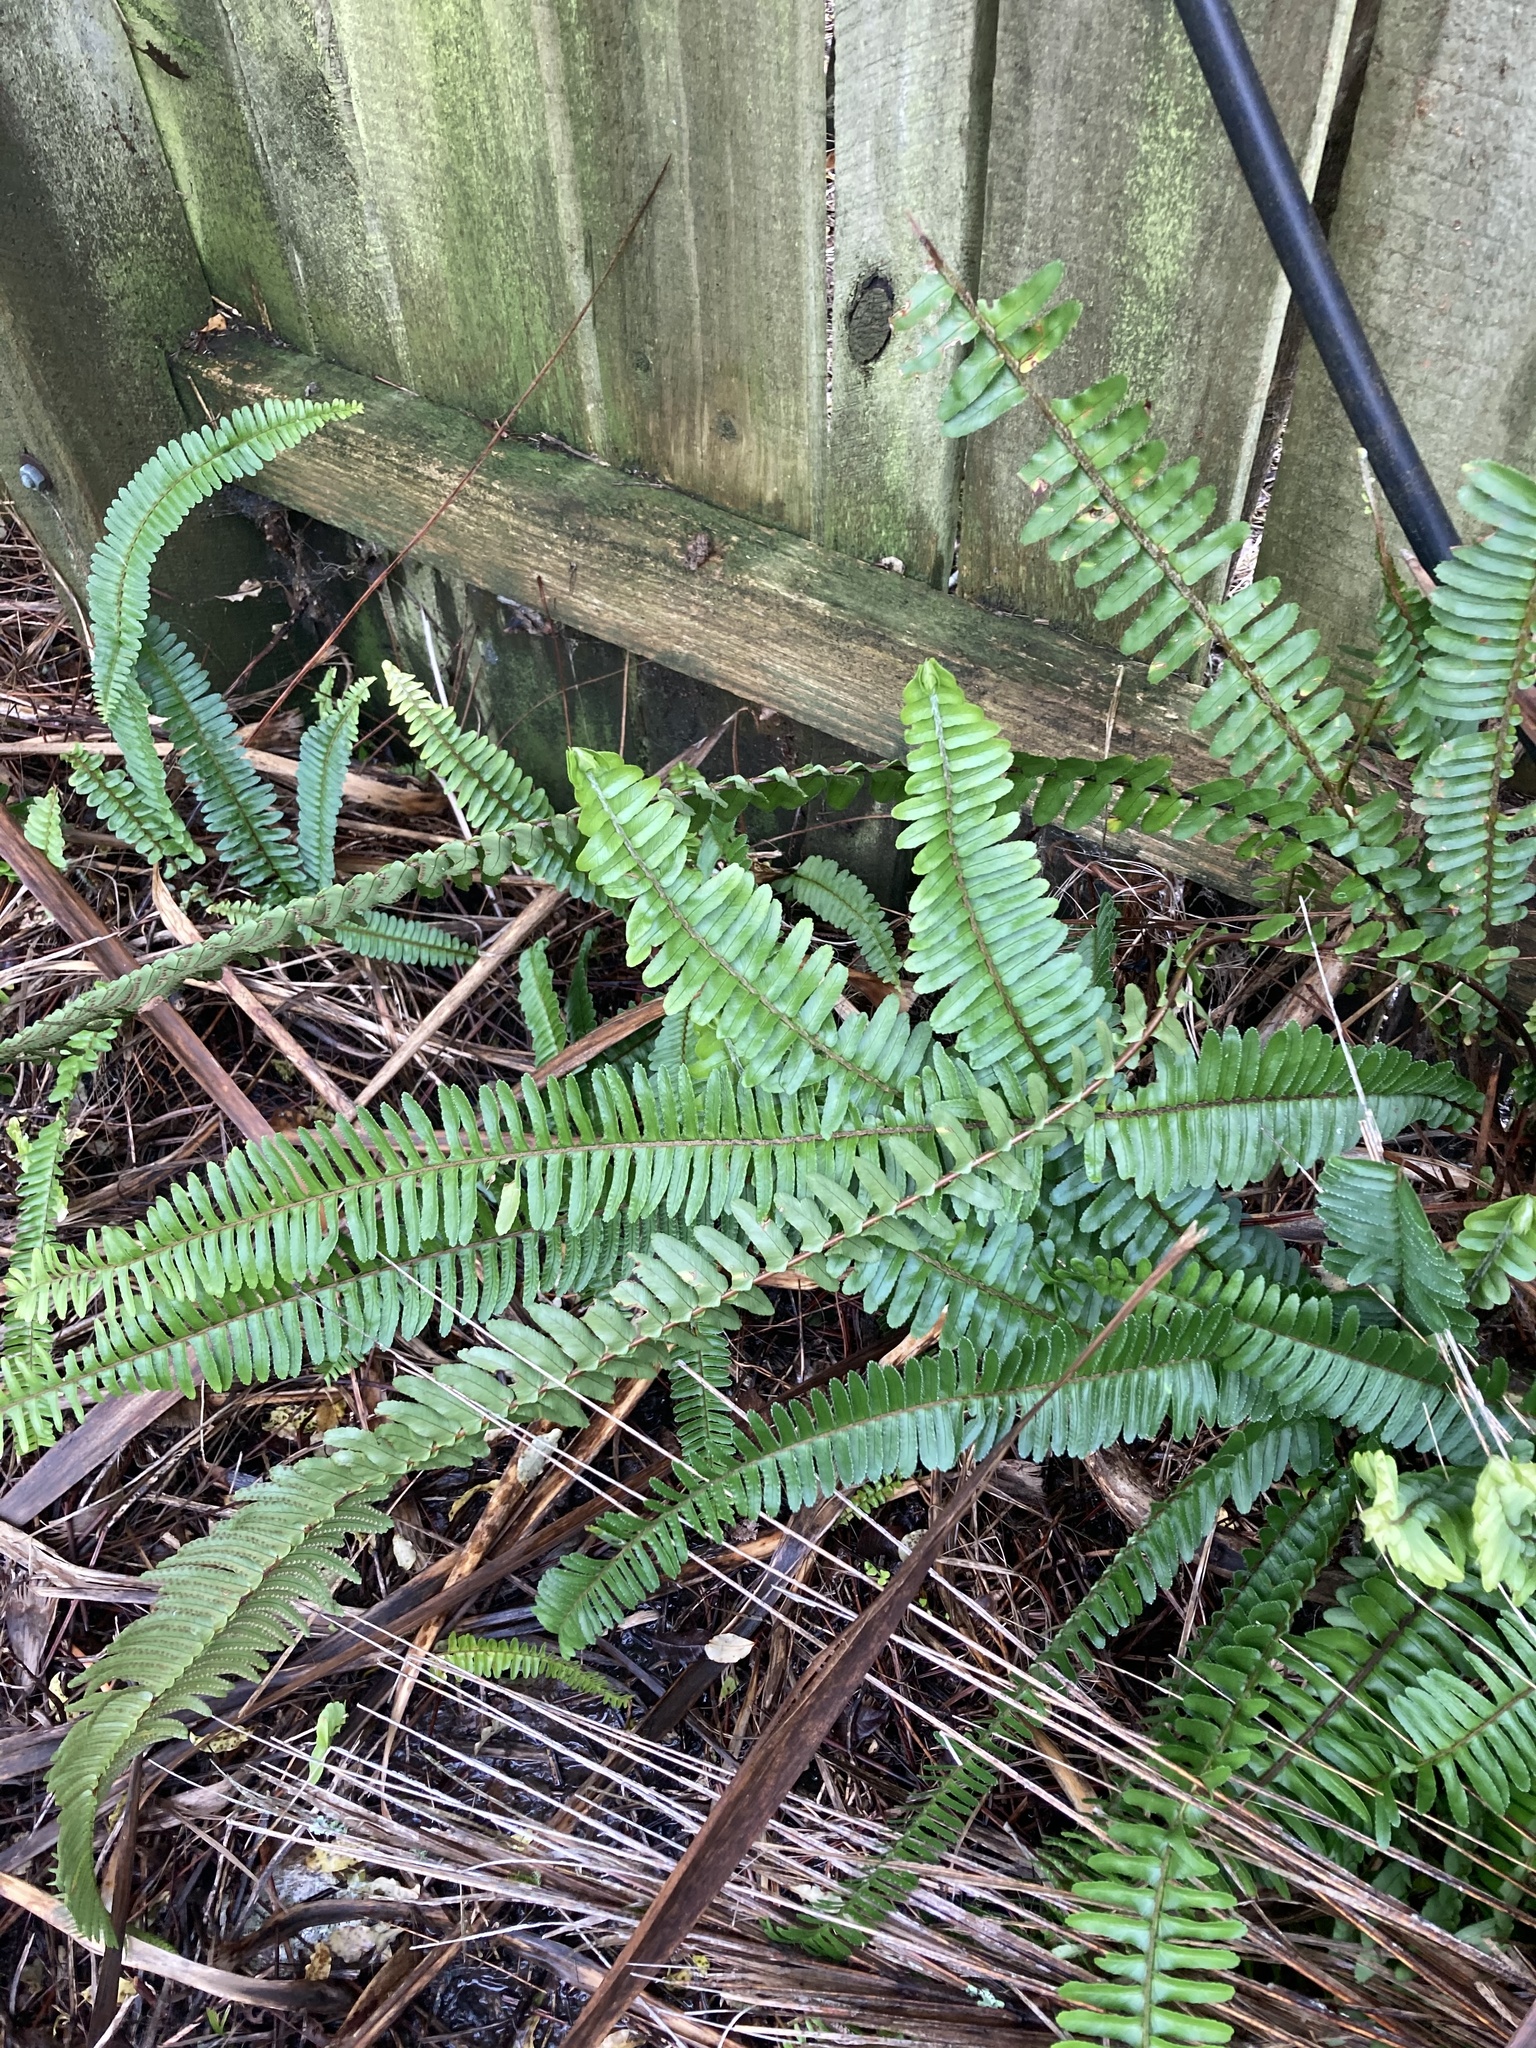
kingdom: Plantae
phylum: Tracheophyta
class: Polypodiopsida
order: Polypodiales
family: Nephrolepidaceae
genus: Nephrolepis
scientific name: Nephrolepis cordifolia
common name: Narrow swordfern
